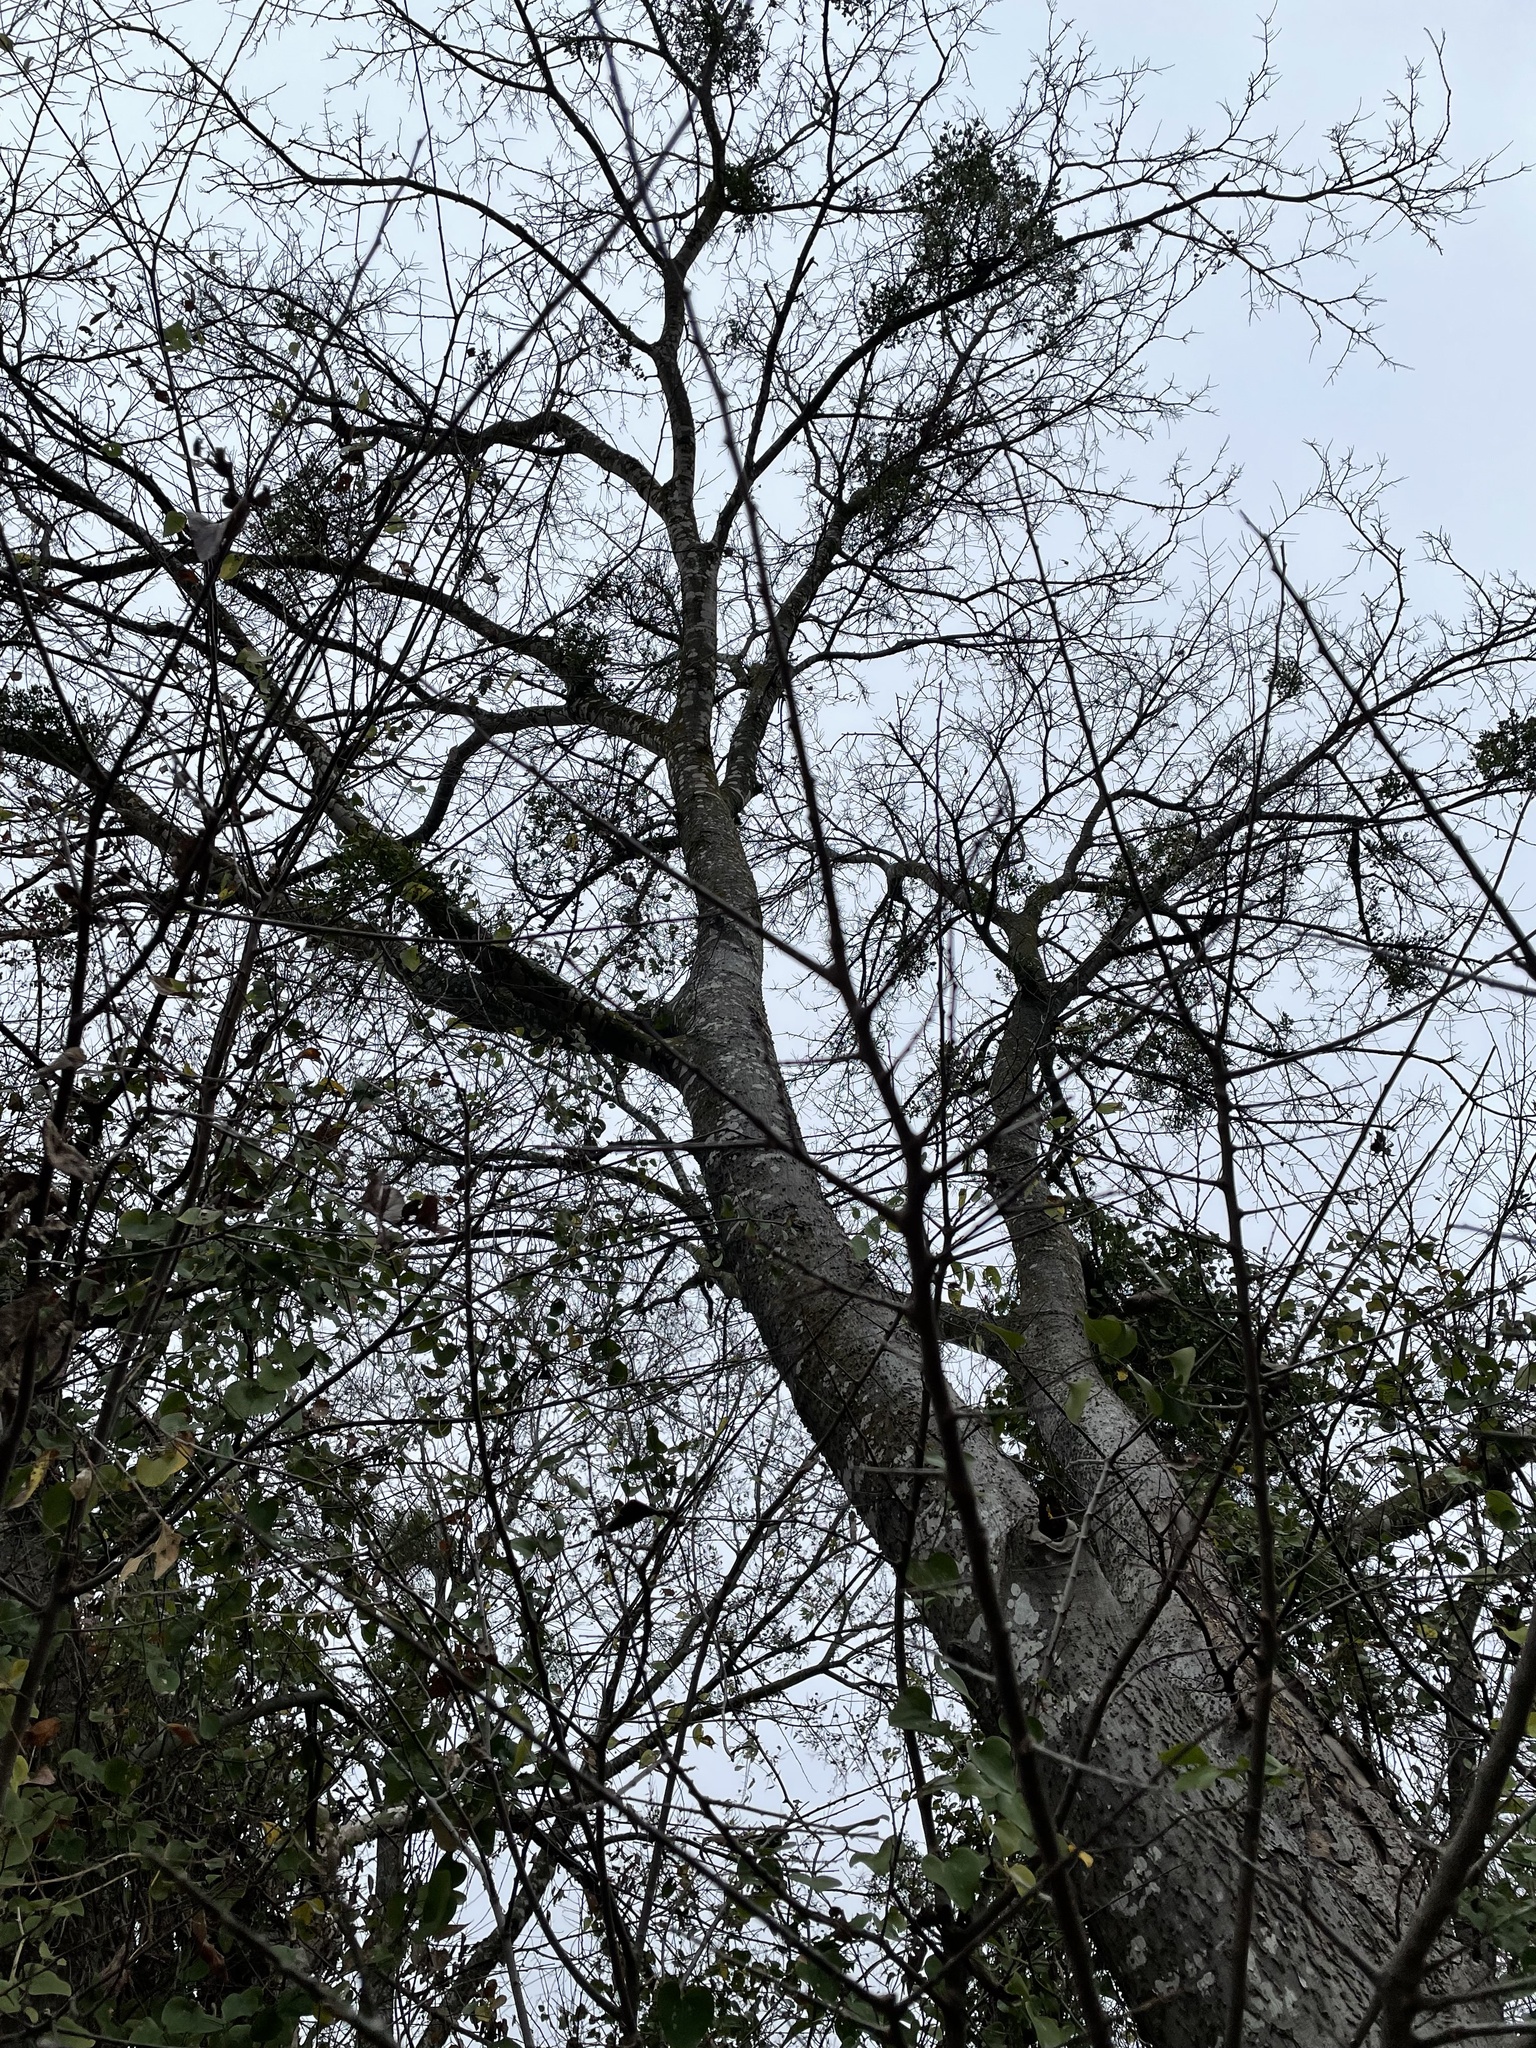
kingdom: Plantae
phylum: Tracheophyta
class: Magnoliopsida
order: Rosales
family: Cannabaceae
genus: Celtis
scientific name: Celtis laevigata
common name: Sugarberry
